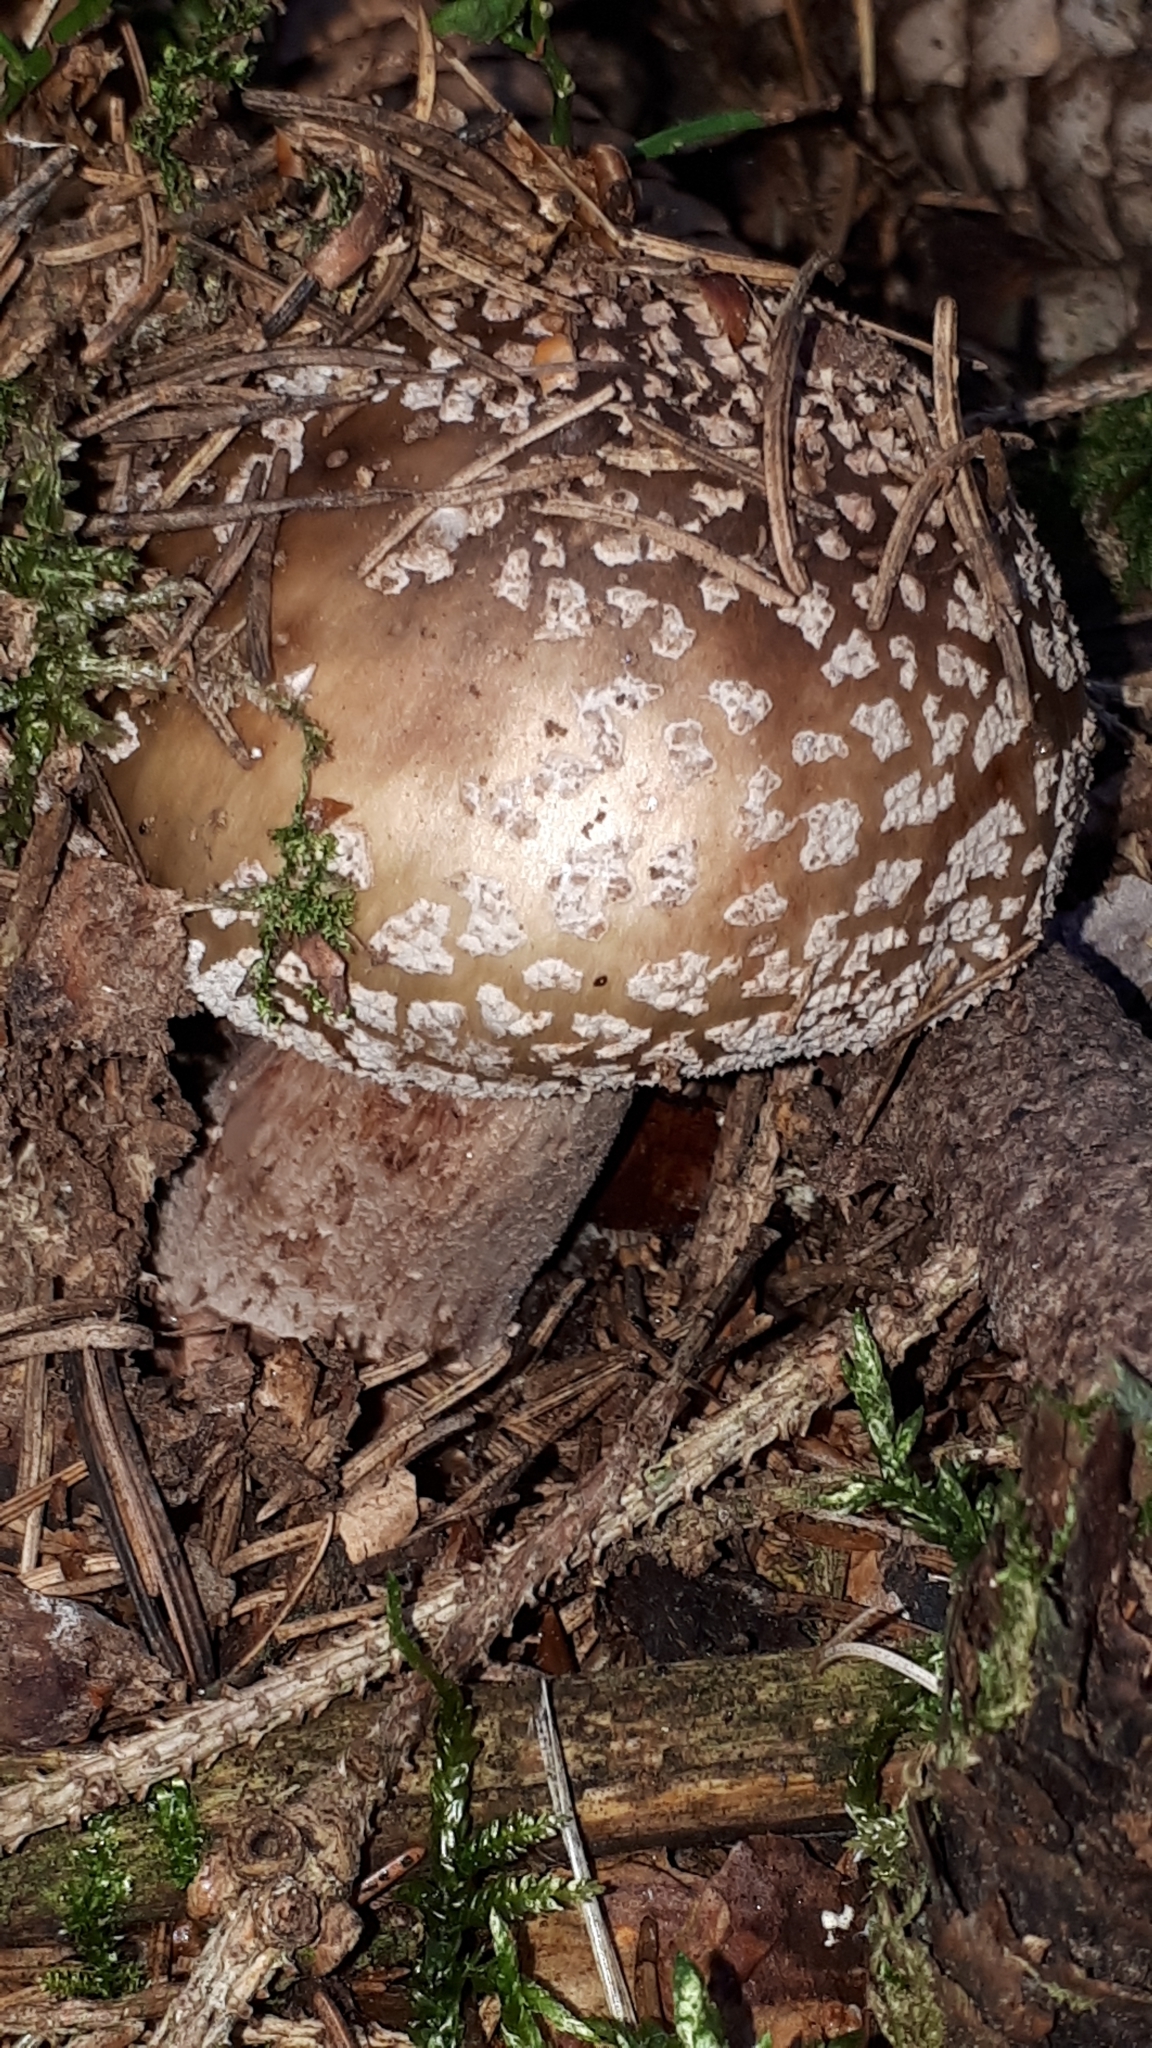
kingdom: Fungi
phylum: Basidiomycota
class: Agaricomycetes
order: Agaricales
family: Amanitaceae
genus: Amanita
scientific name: Amanita rubescens
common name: Blusher
